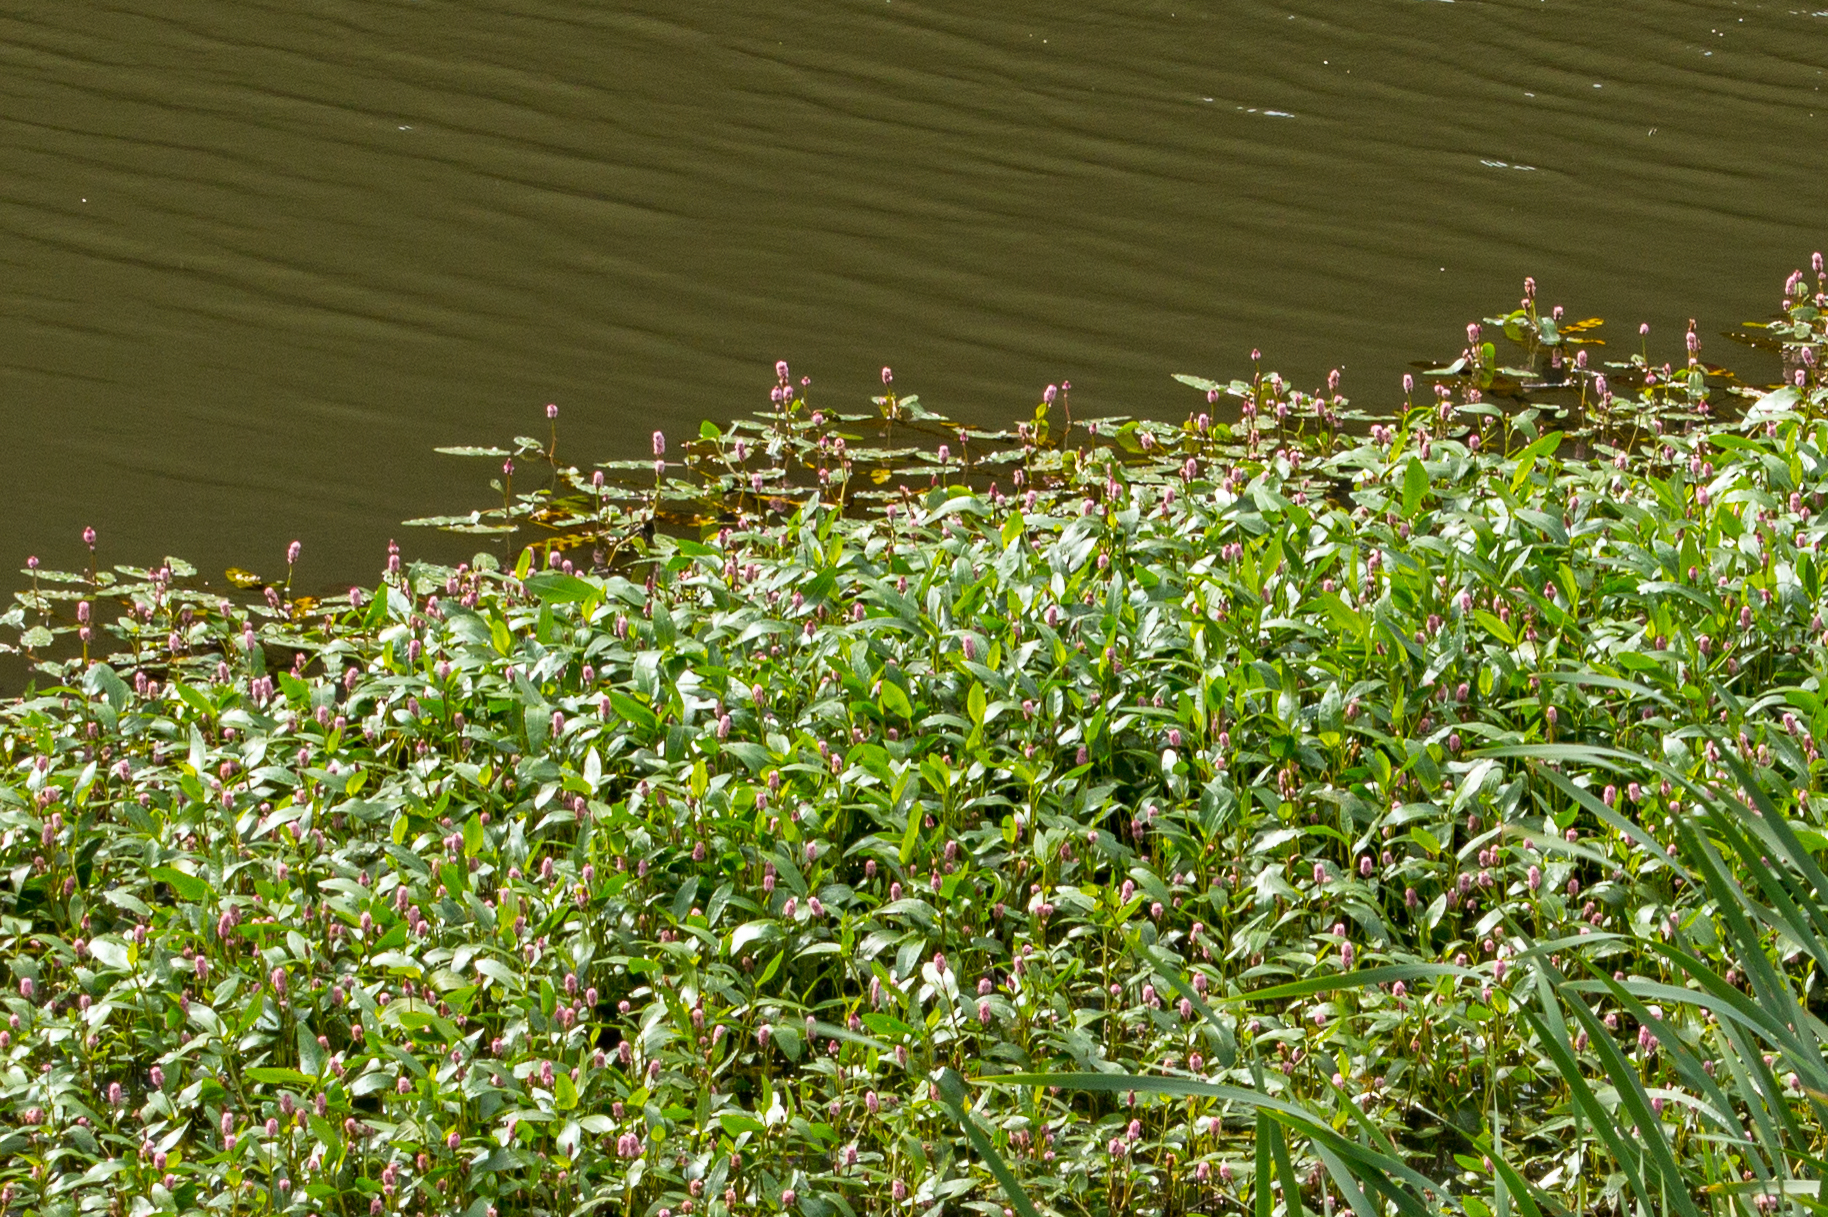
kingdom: Plantae
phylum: Tracheophyta
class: Magnoliopsida
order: Caryophyllales
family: Polygonaceae
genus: Persicaria
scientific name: Persicaria amphibia
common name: Amphibious bistort
